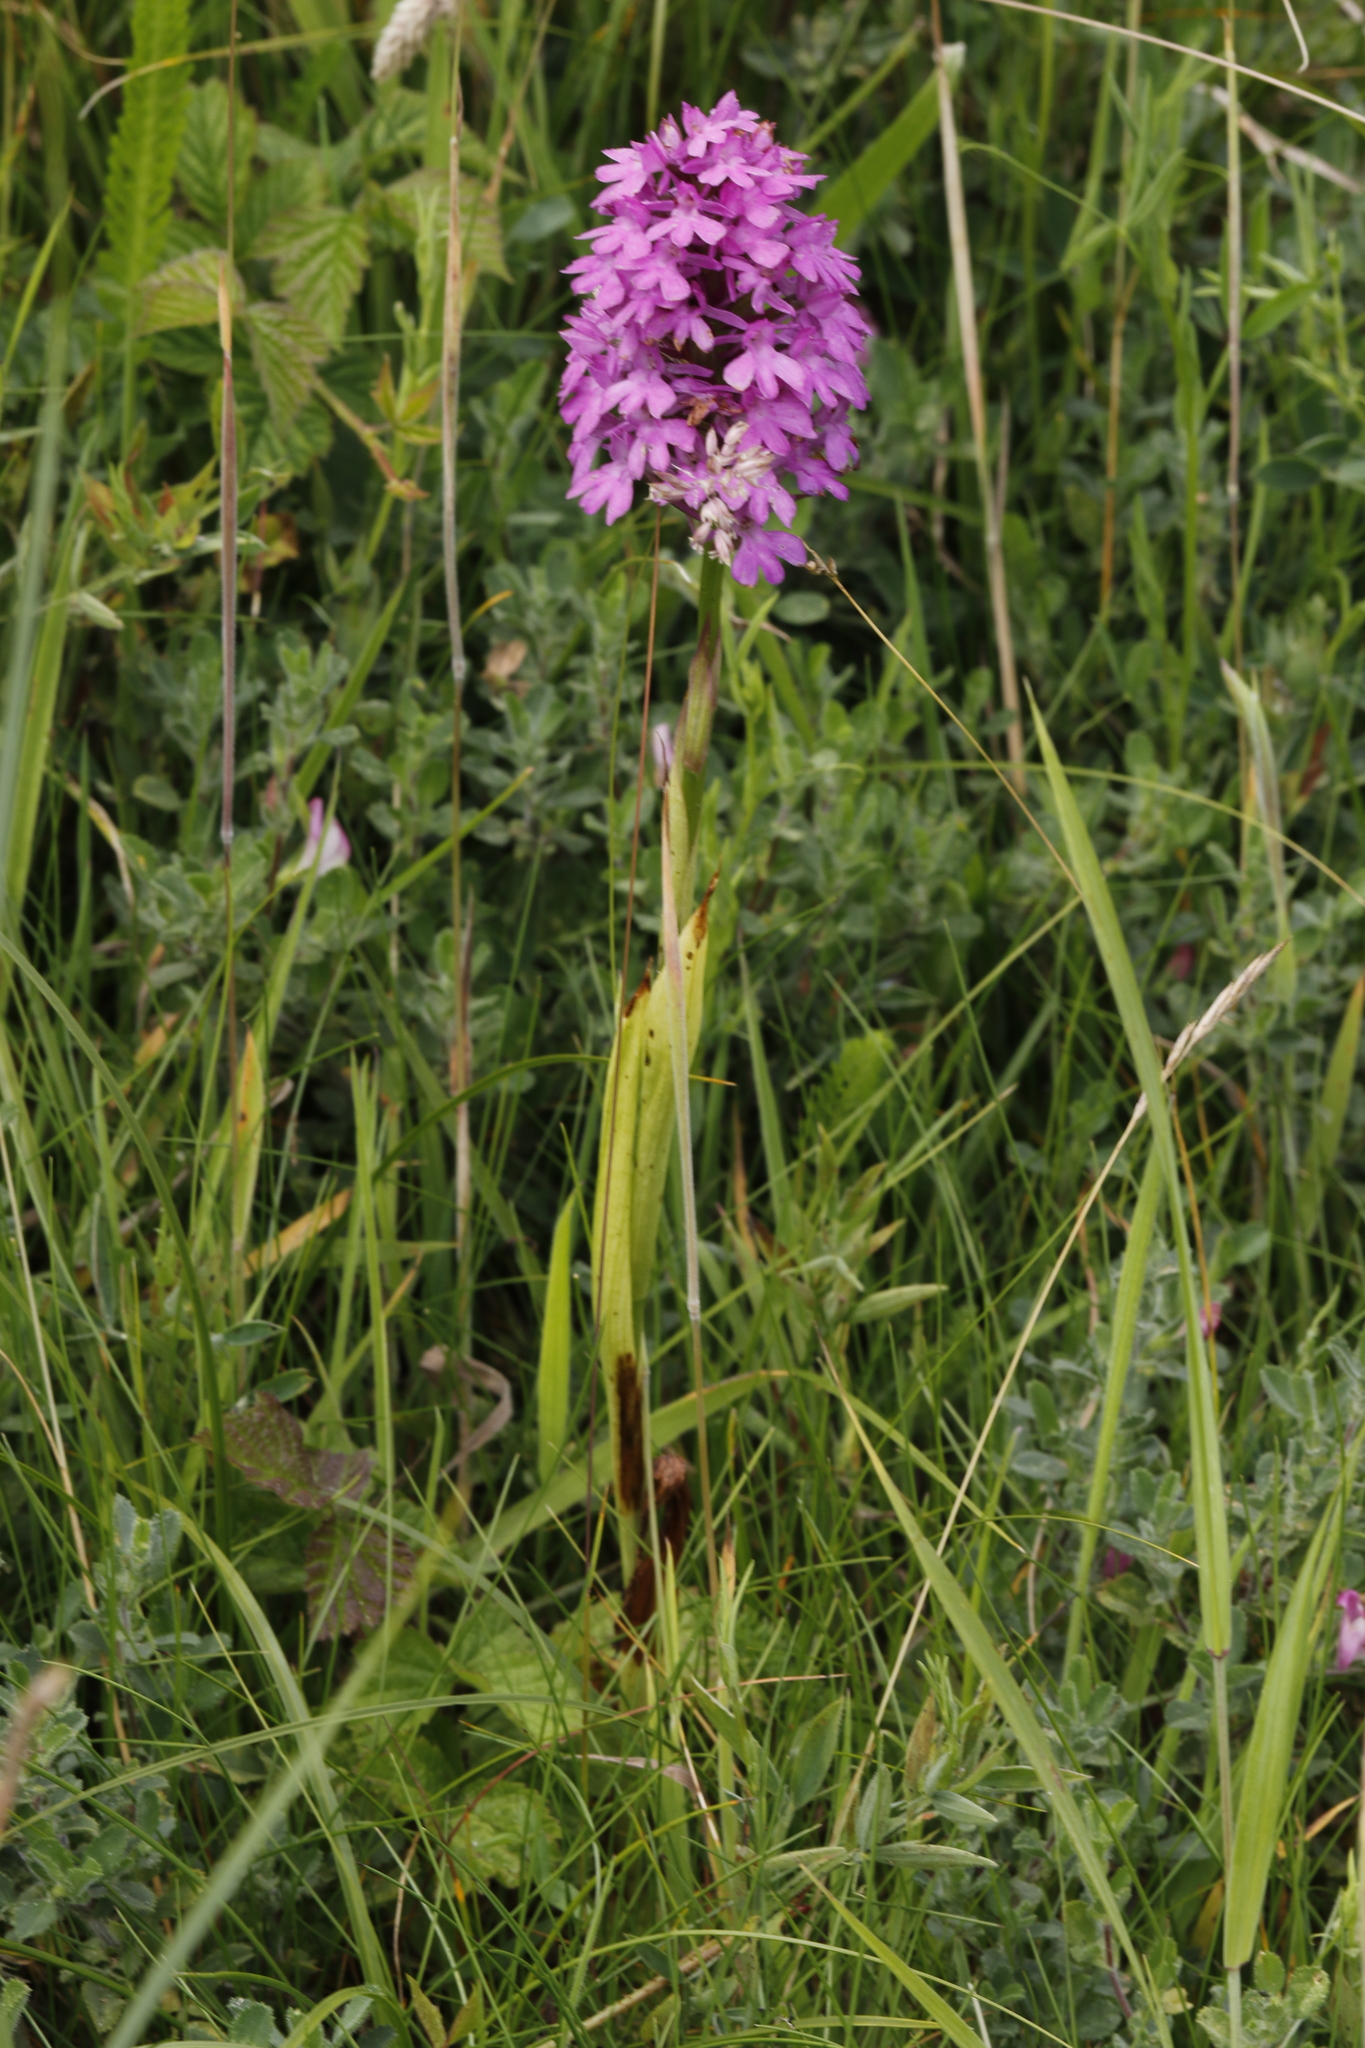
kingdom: Plantae
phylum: Tracheophyta
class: Liliopsida
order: Asparagales
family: Orchidaceae
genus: Anacamptis
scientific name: Anacamptis pyramidalis
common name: Pyramidal orchid
